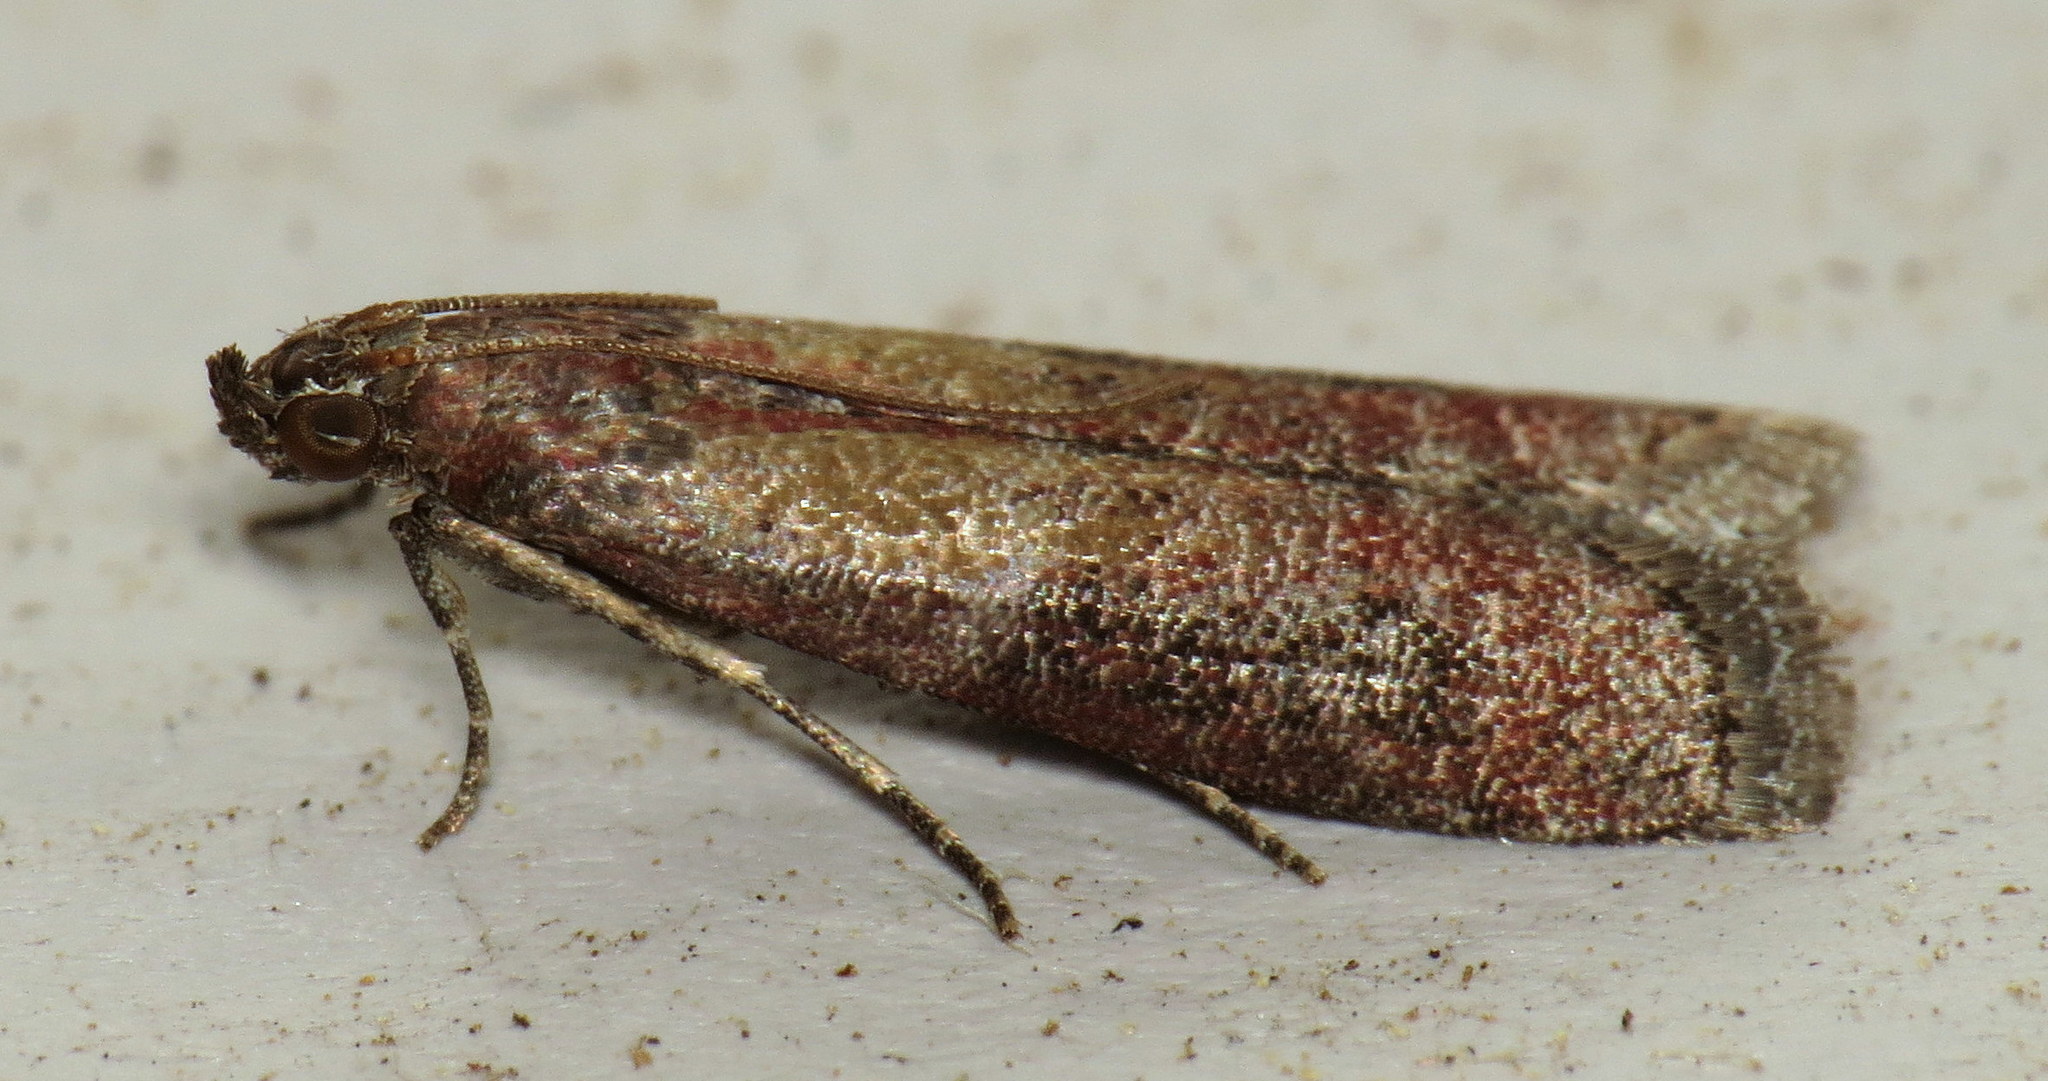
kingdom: Animalia
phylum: Arthropoda
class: Insecta
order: Lepidoptera
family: Pyralidae
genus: Ephestiodes
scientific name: Ephestiodes infimella
